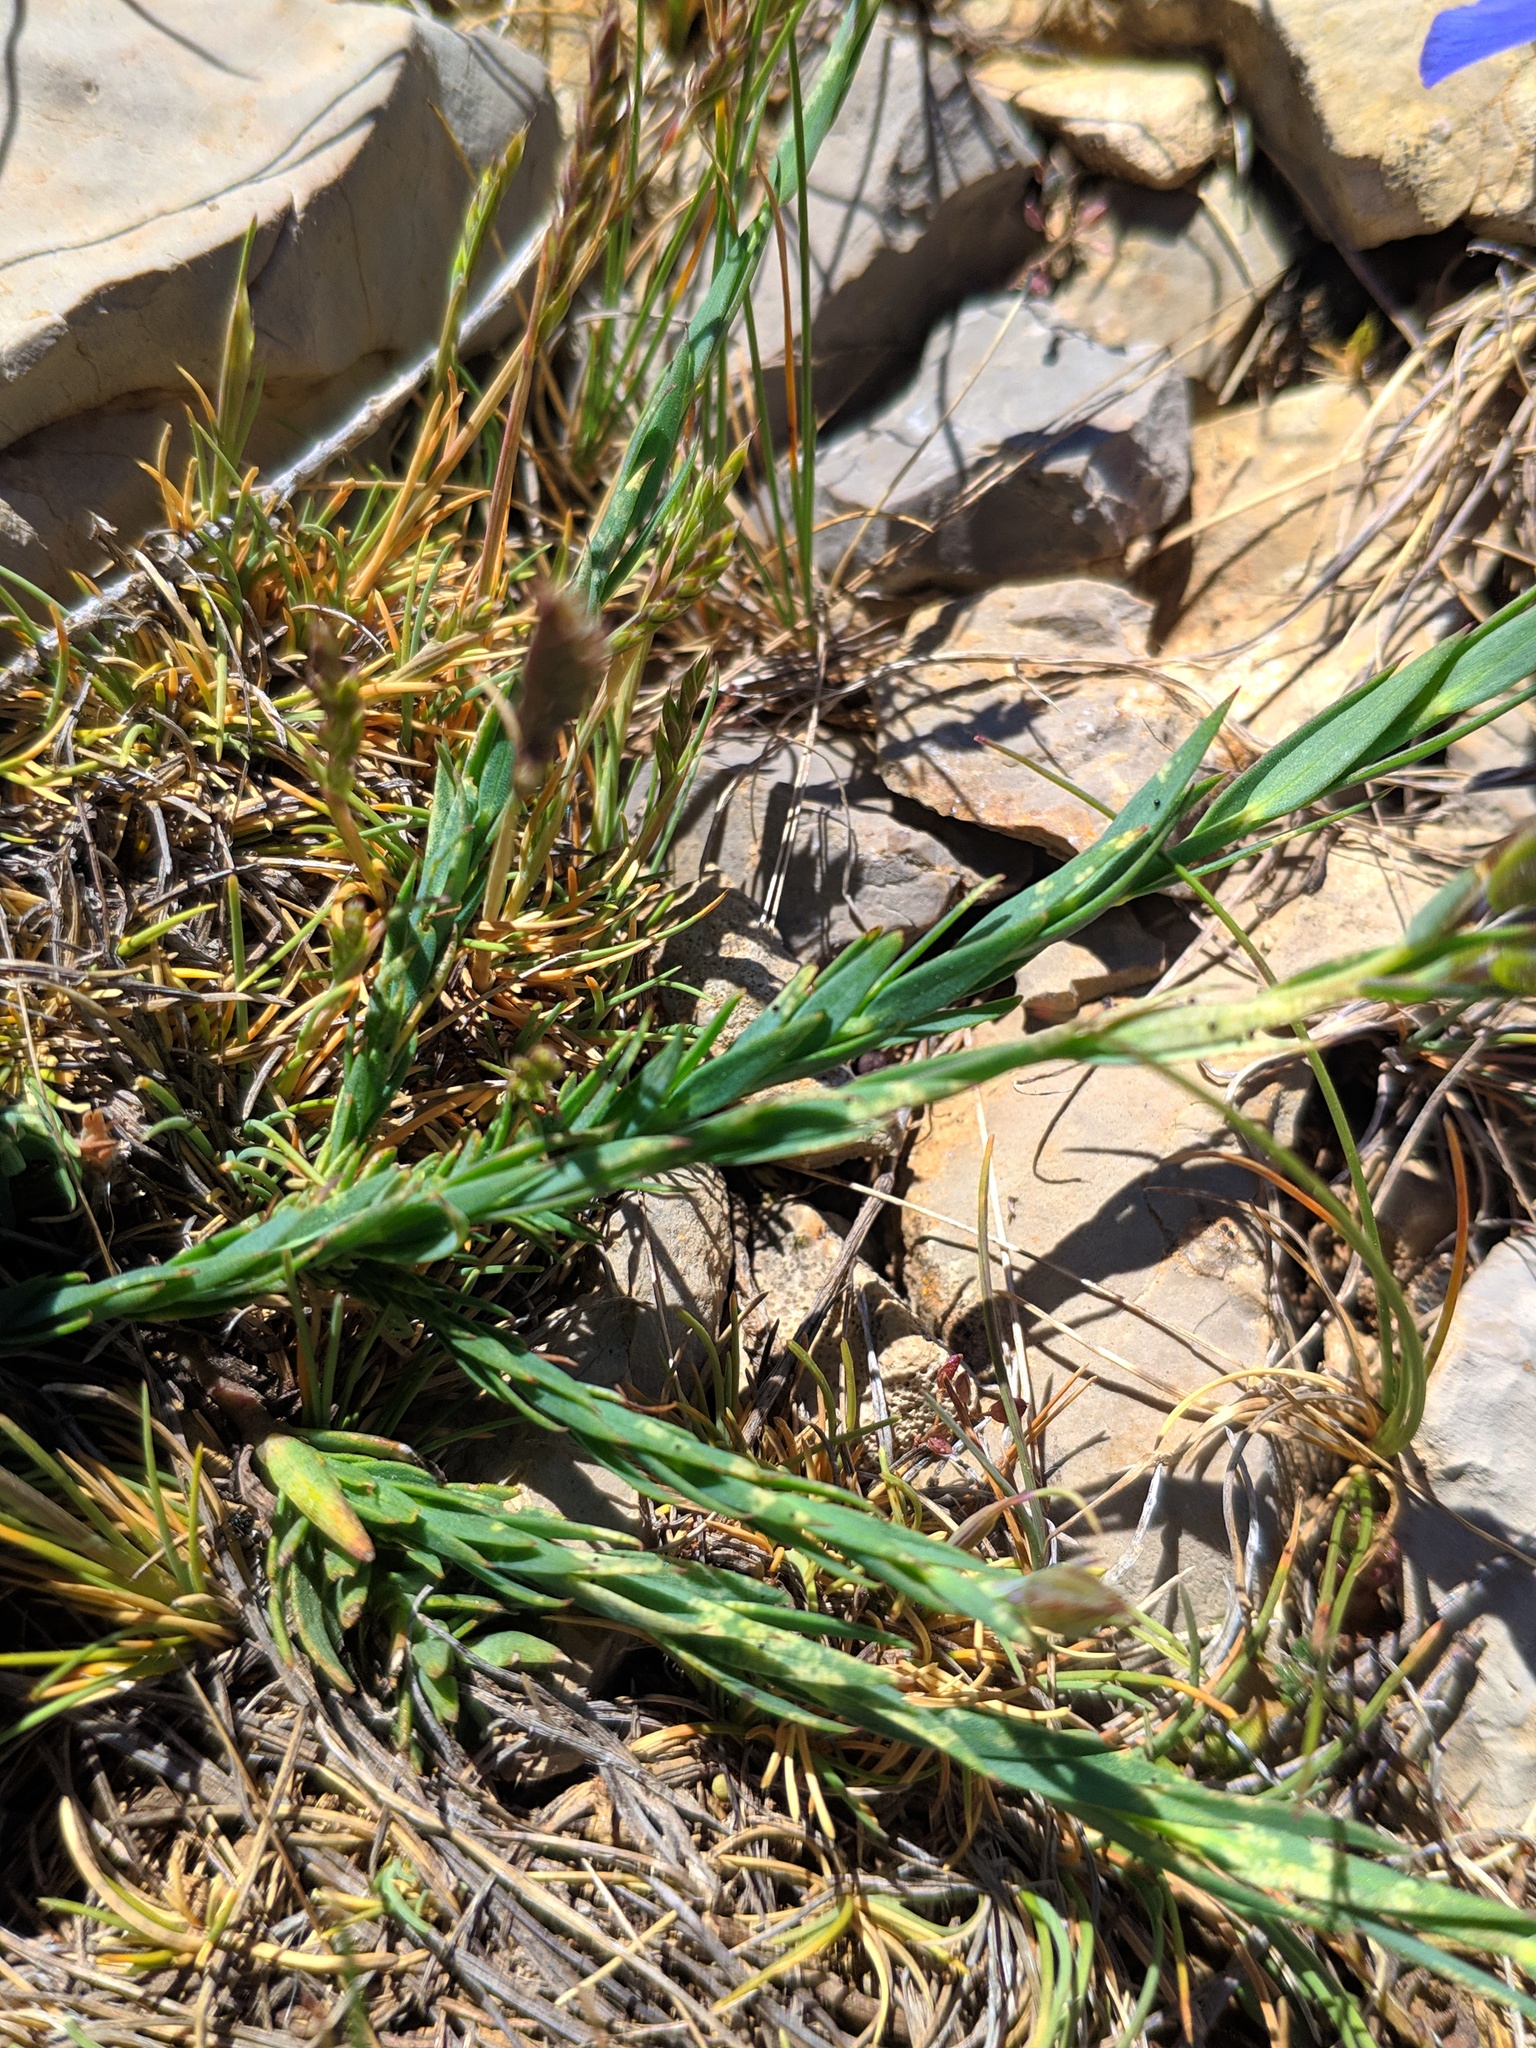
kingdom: Plantae
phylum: Tracheophyta
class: Magnoliopsida
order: Malpighiales
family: Linaceae
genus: Linum
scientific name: Linum narbonense
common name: Flax
